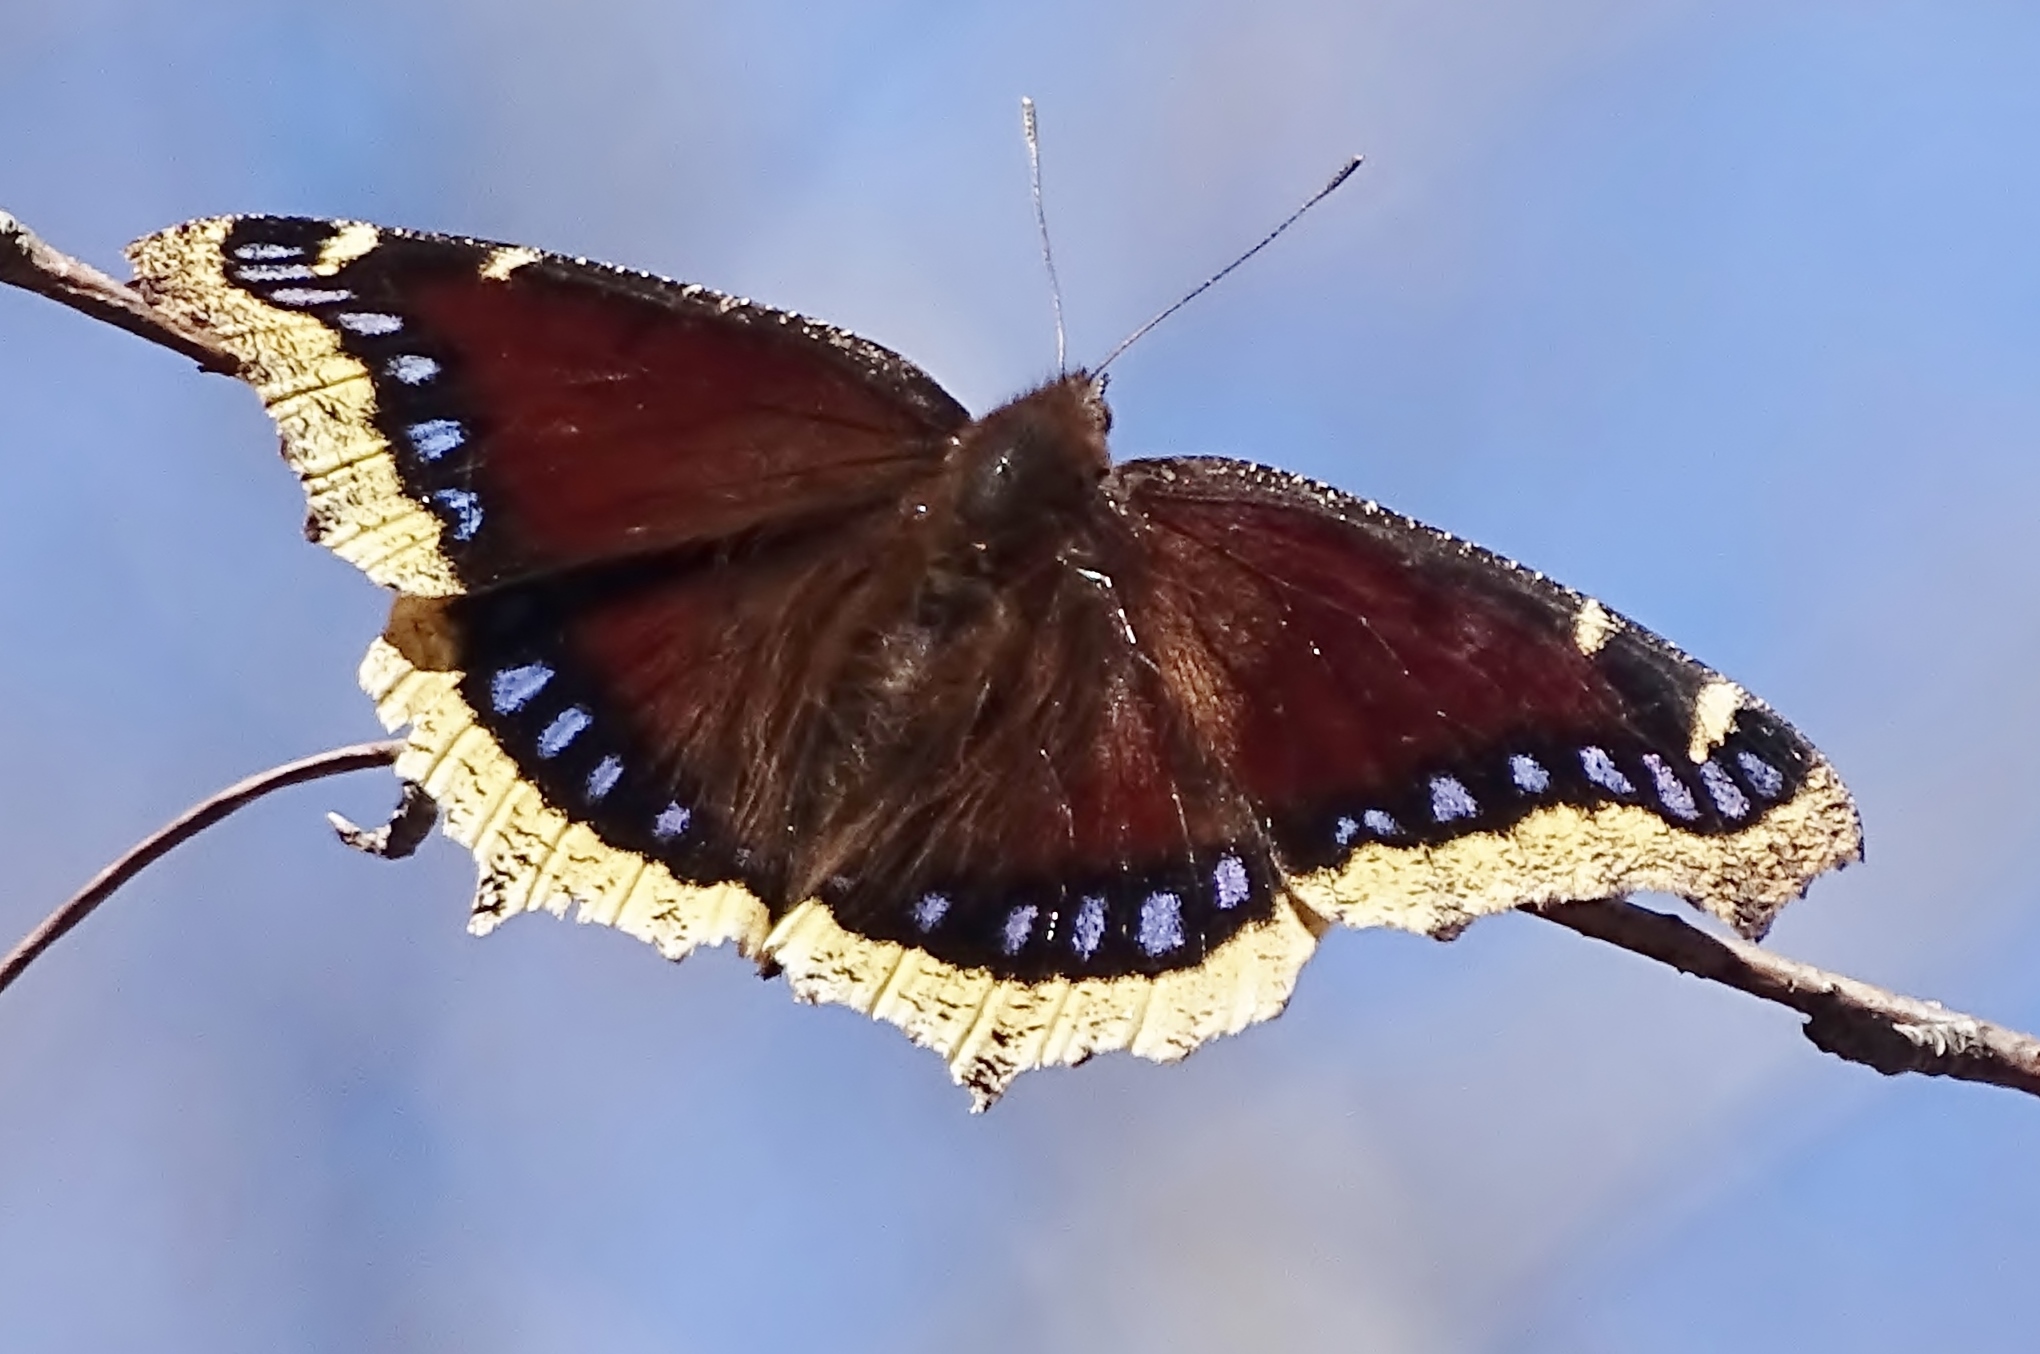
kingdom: Animalia
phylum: Arthropoda
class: Insecta
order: Lepidoptera
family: Nymphalidae
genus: Nymphalis
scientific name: Nymphalis antiopa
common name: Camberwell beauty
